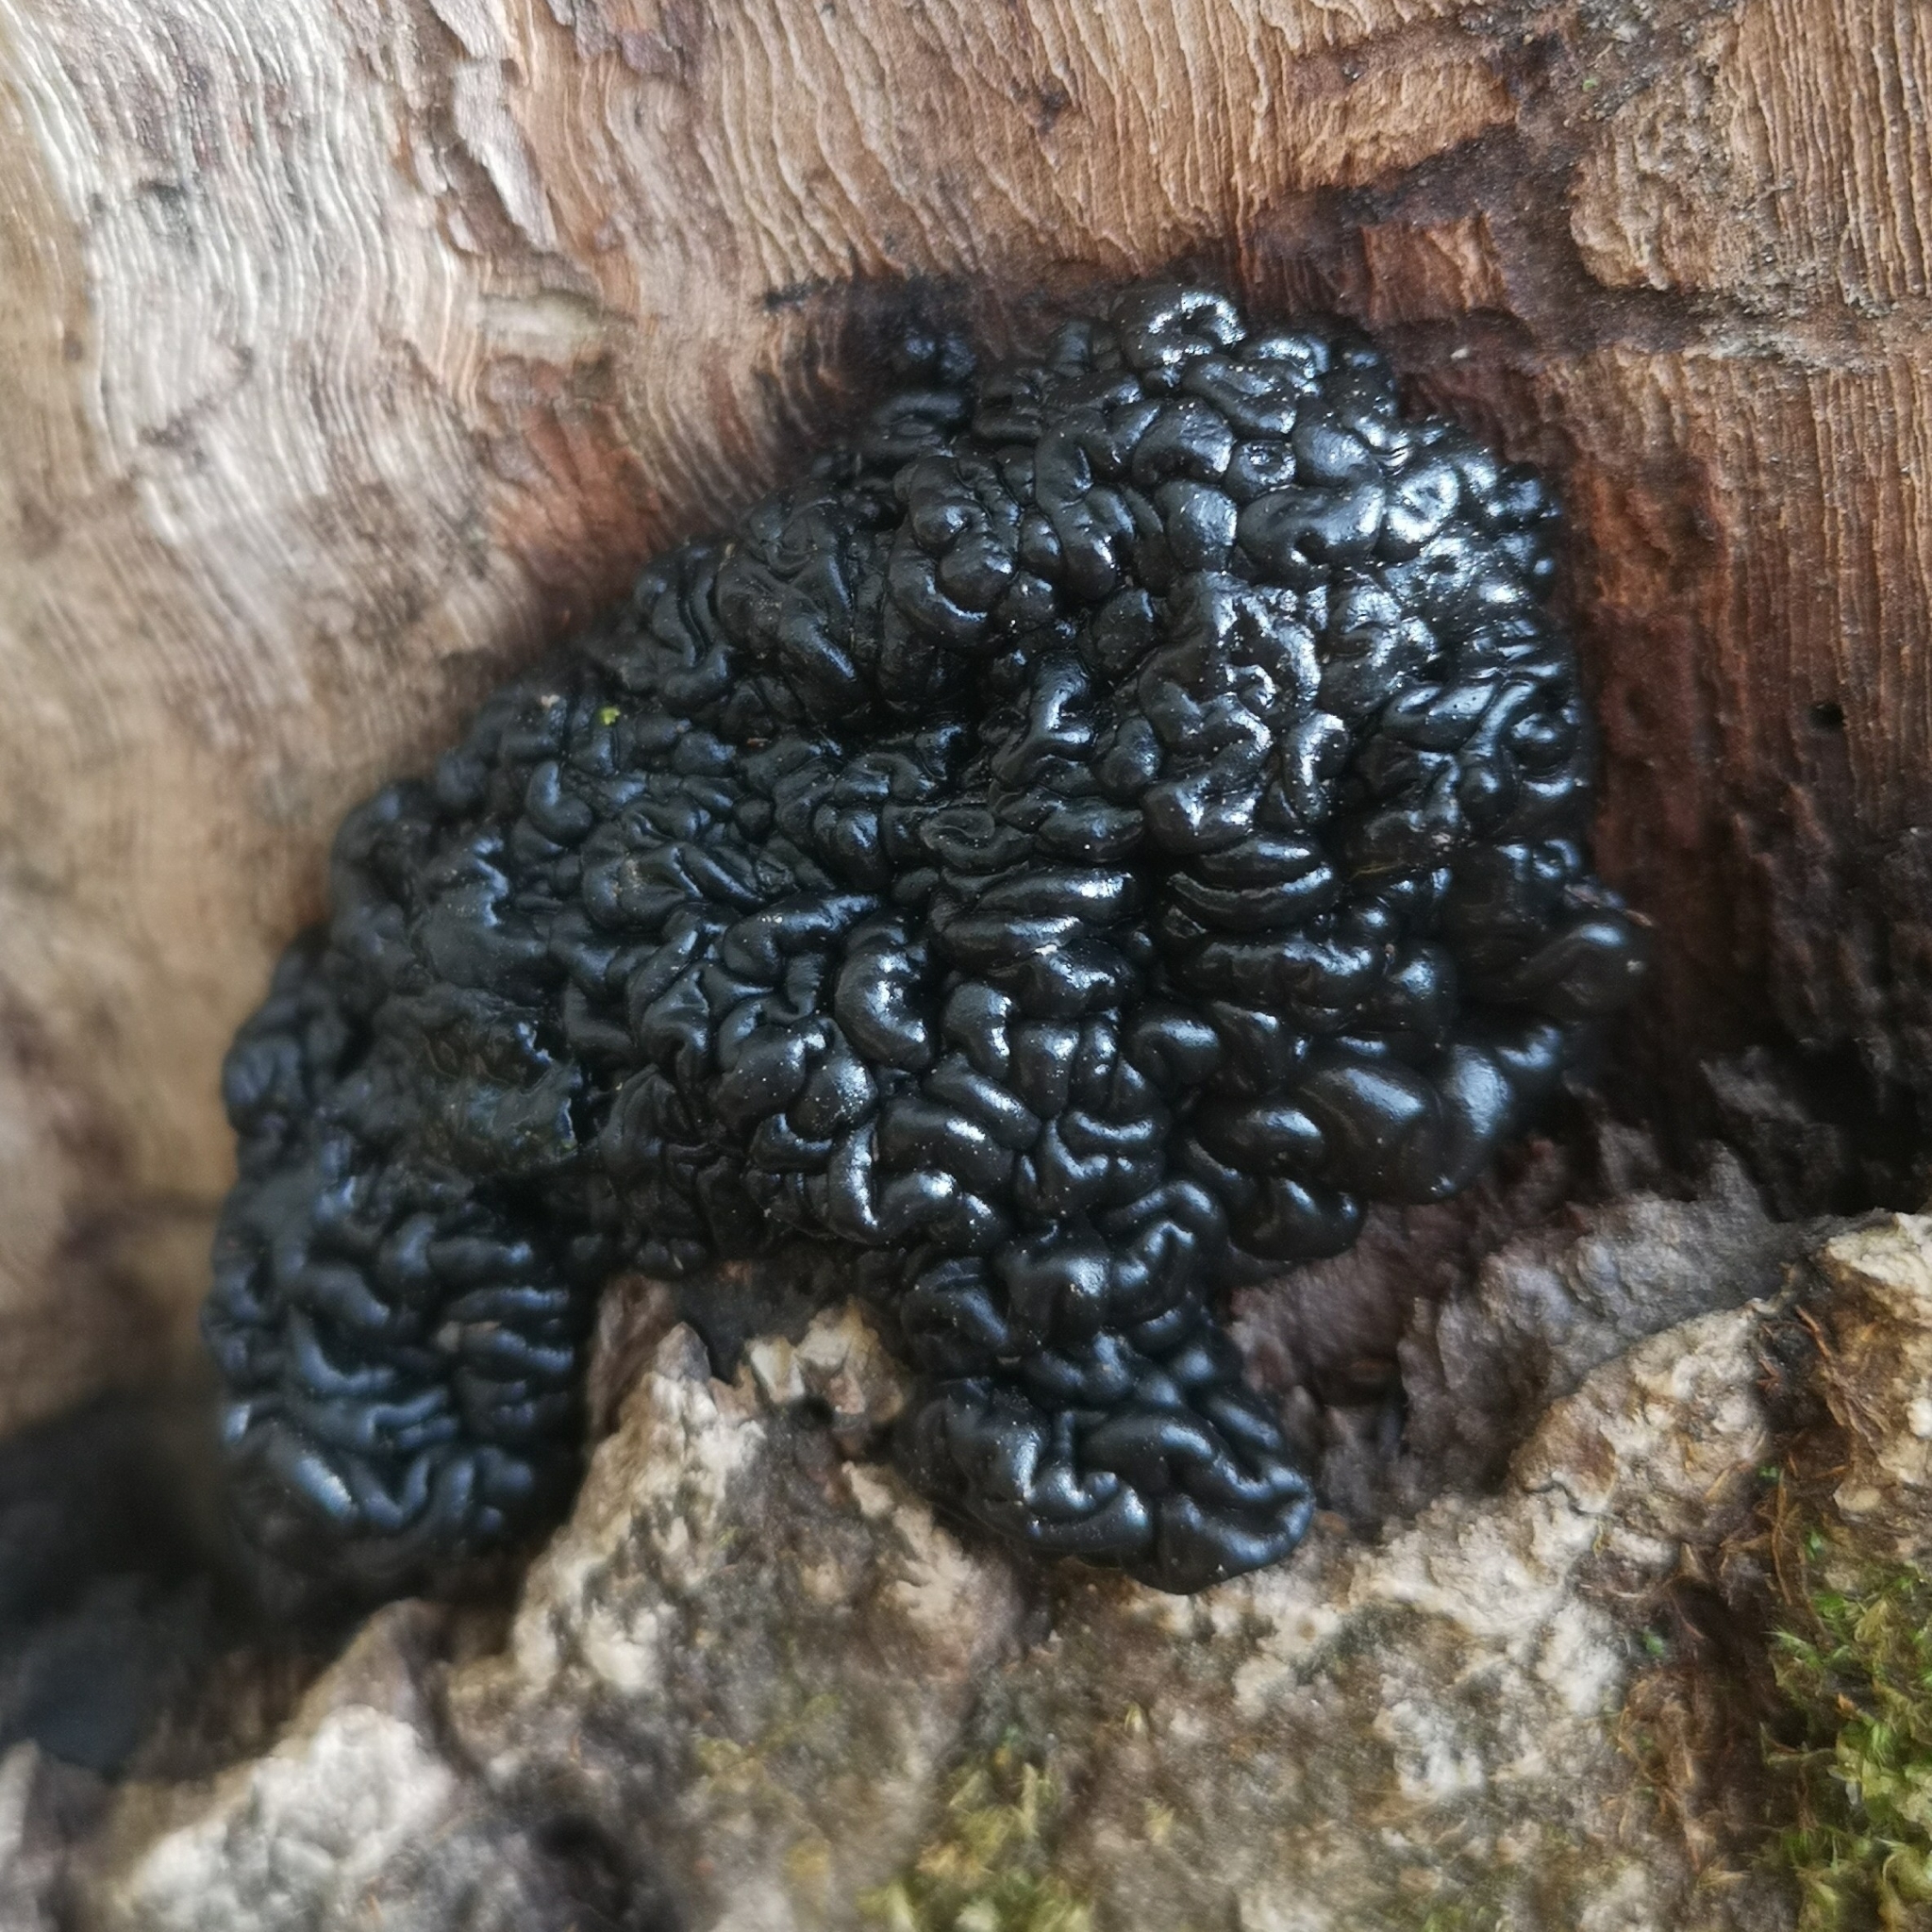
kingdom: Fungi
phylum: Basidiomycota
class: Agaricomycetes
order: Auriculariales
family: Auriculariaceae
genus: Exidia
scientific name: Exidia nigricans
